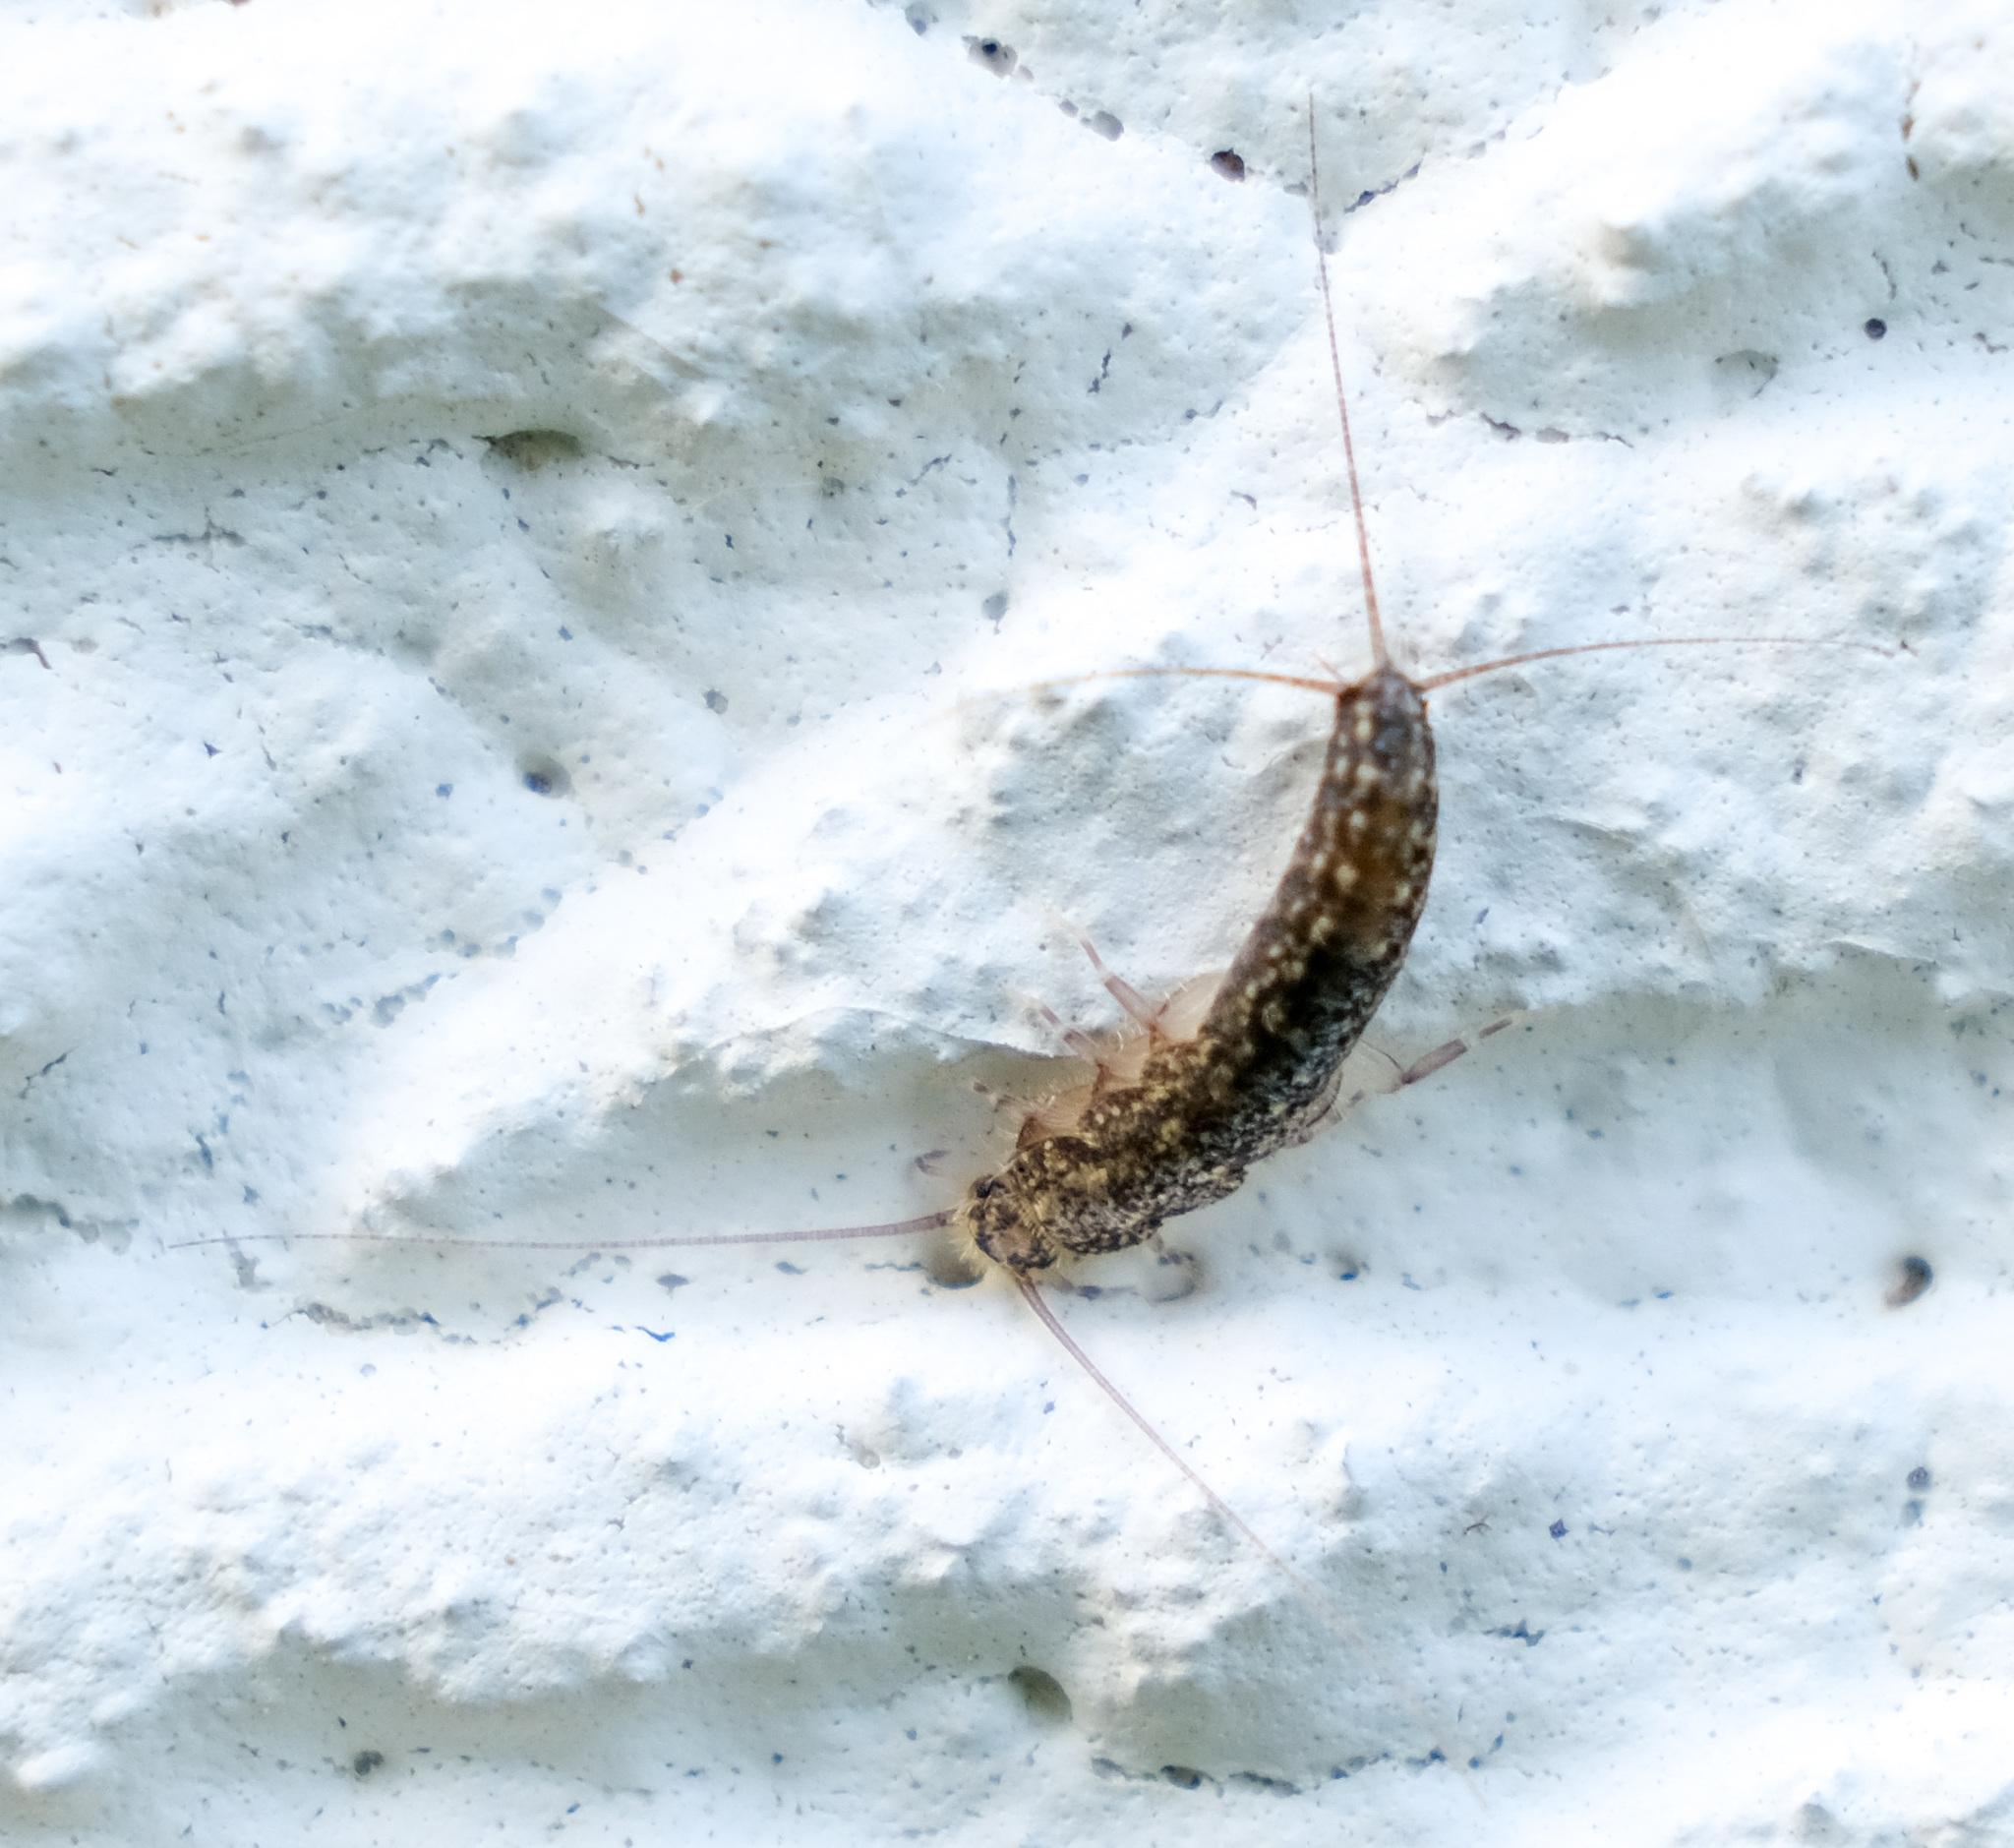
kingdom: Animalia
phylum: Arthropoda
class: Insecta
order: Zygentoma
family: Lepismatidae
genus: Ctenolepisma
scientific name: Ctenolepisma lineata
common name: Four-lined silverfish
